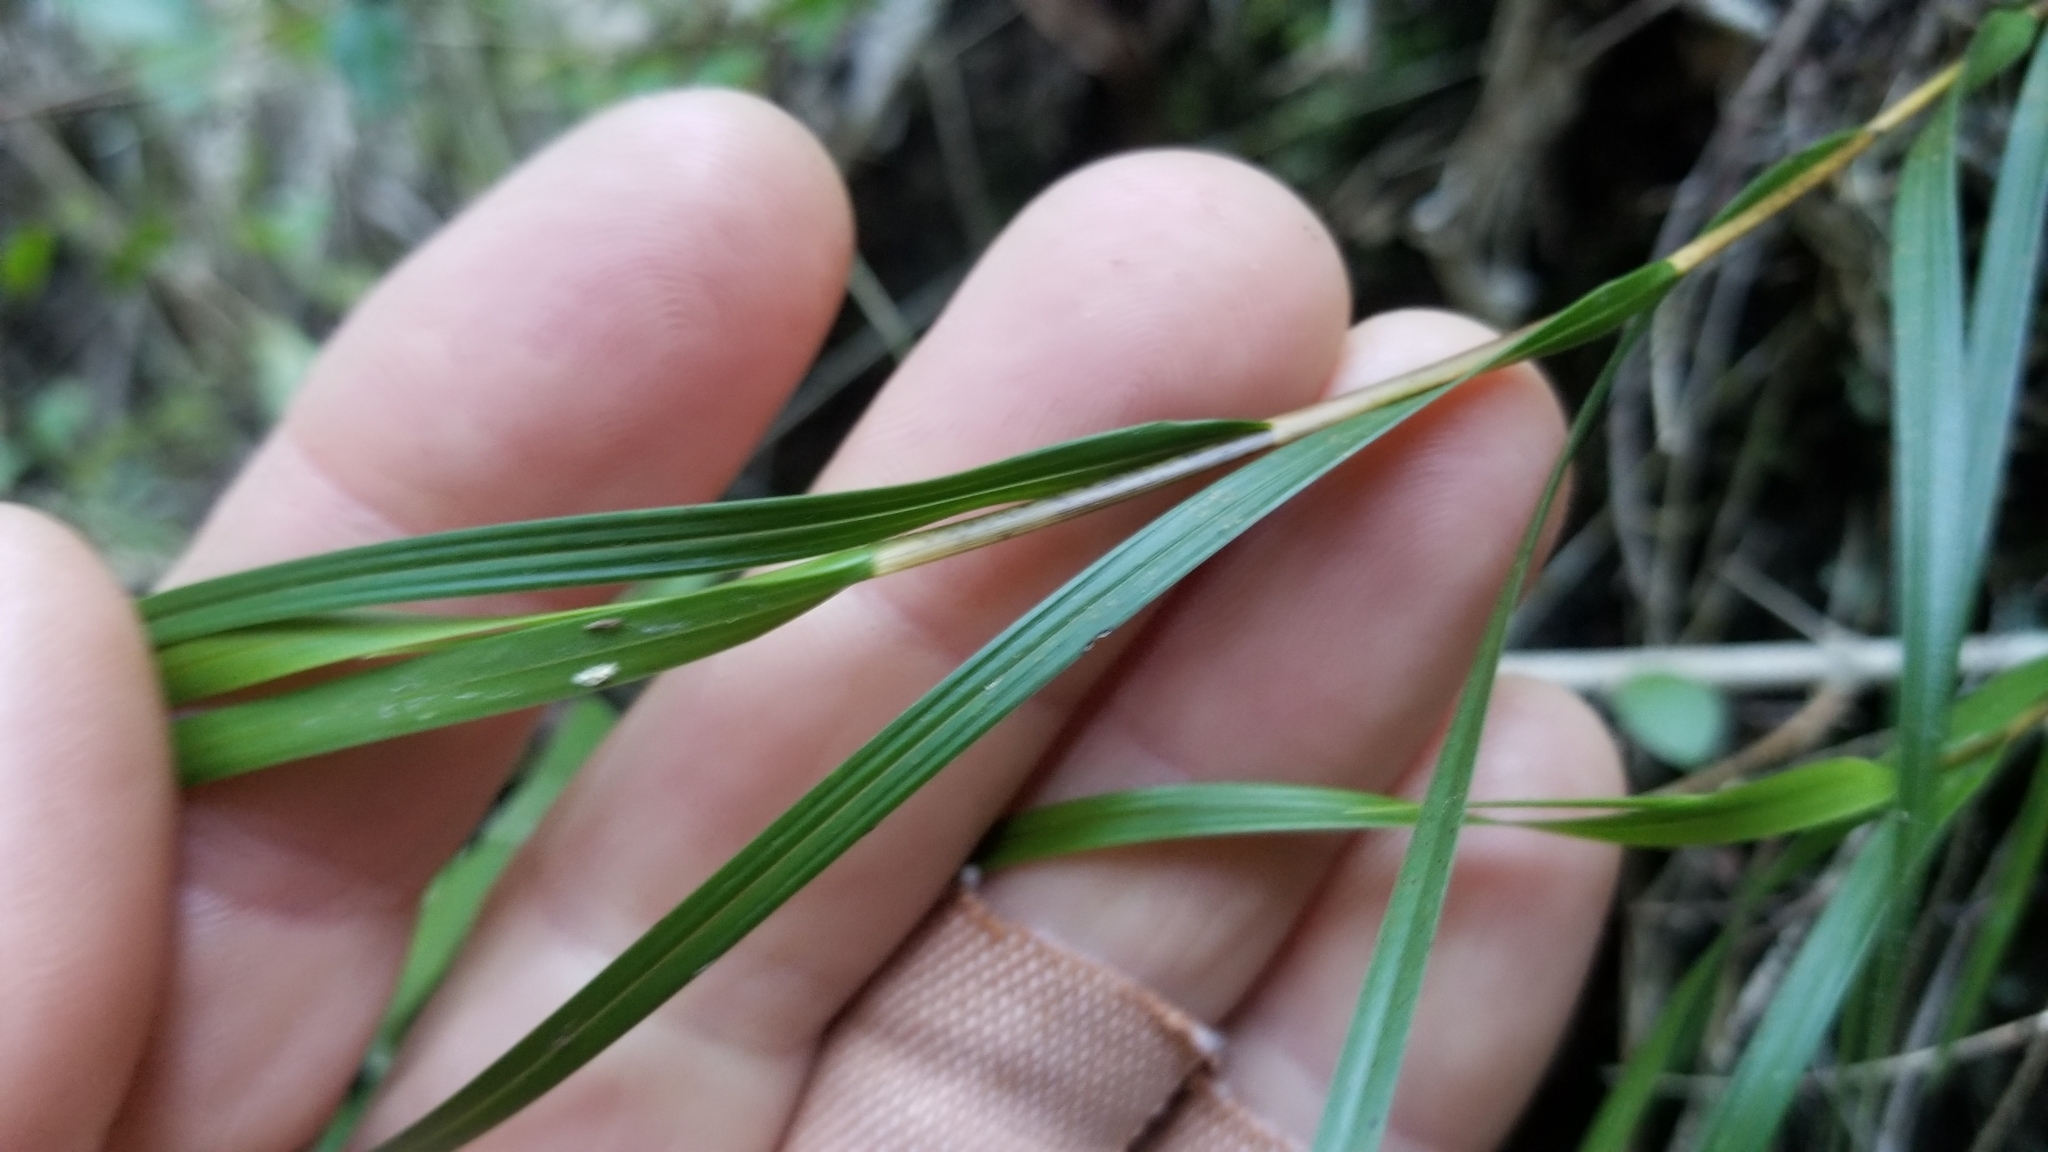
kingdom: Plantae
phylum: Tracheophyta
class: Liliopsida
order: Asparagales
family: Orchidaceae
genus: Earina
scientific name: Earina mucronata
